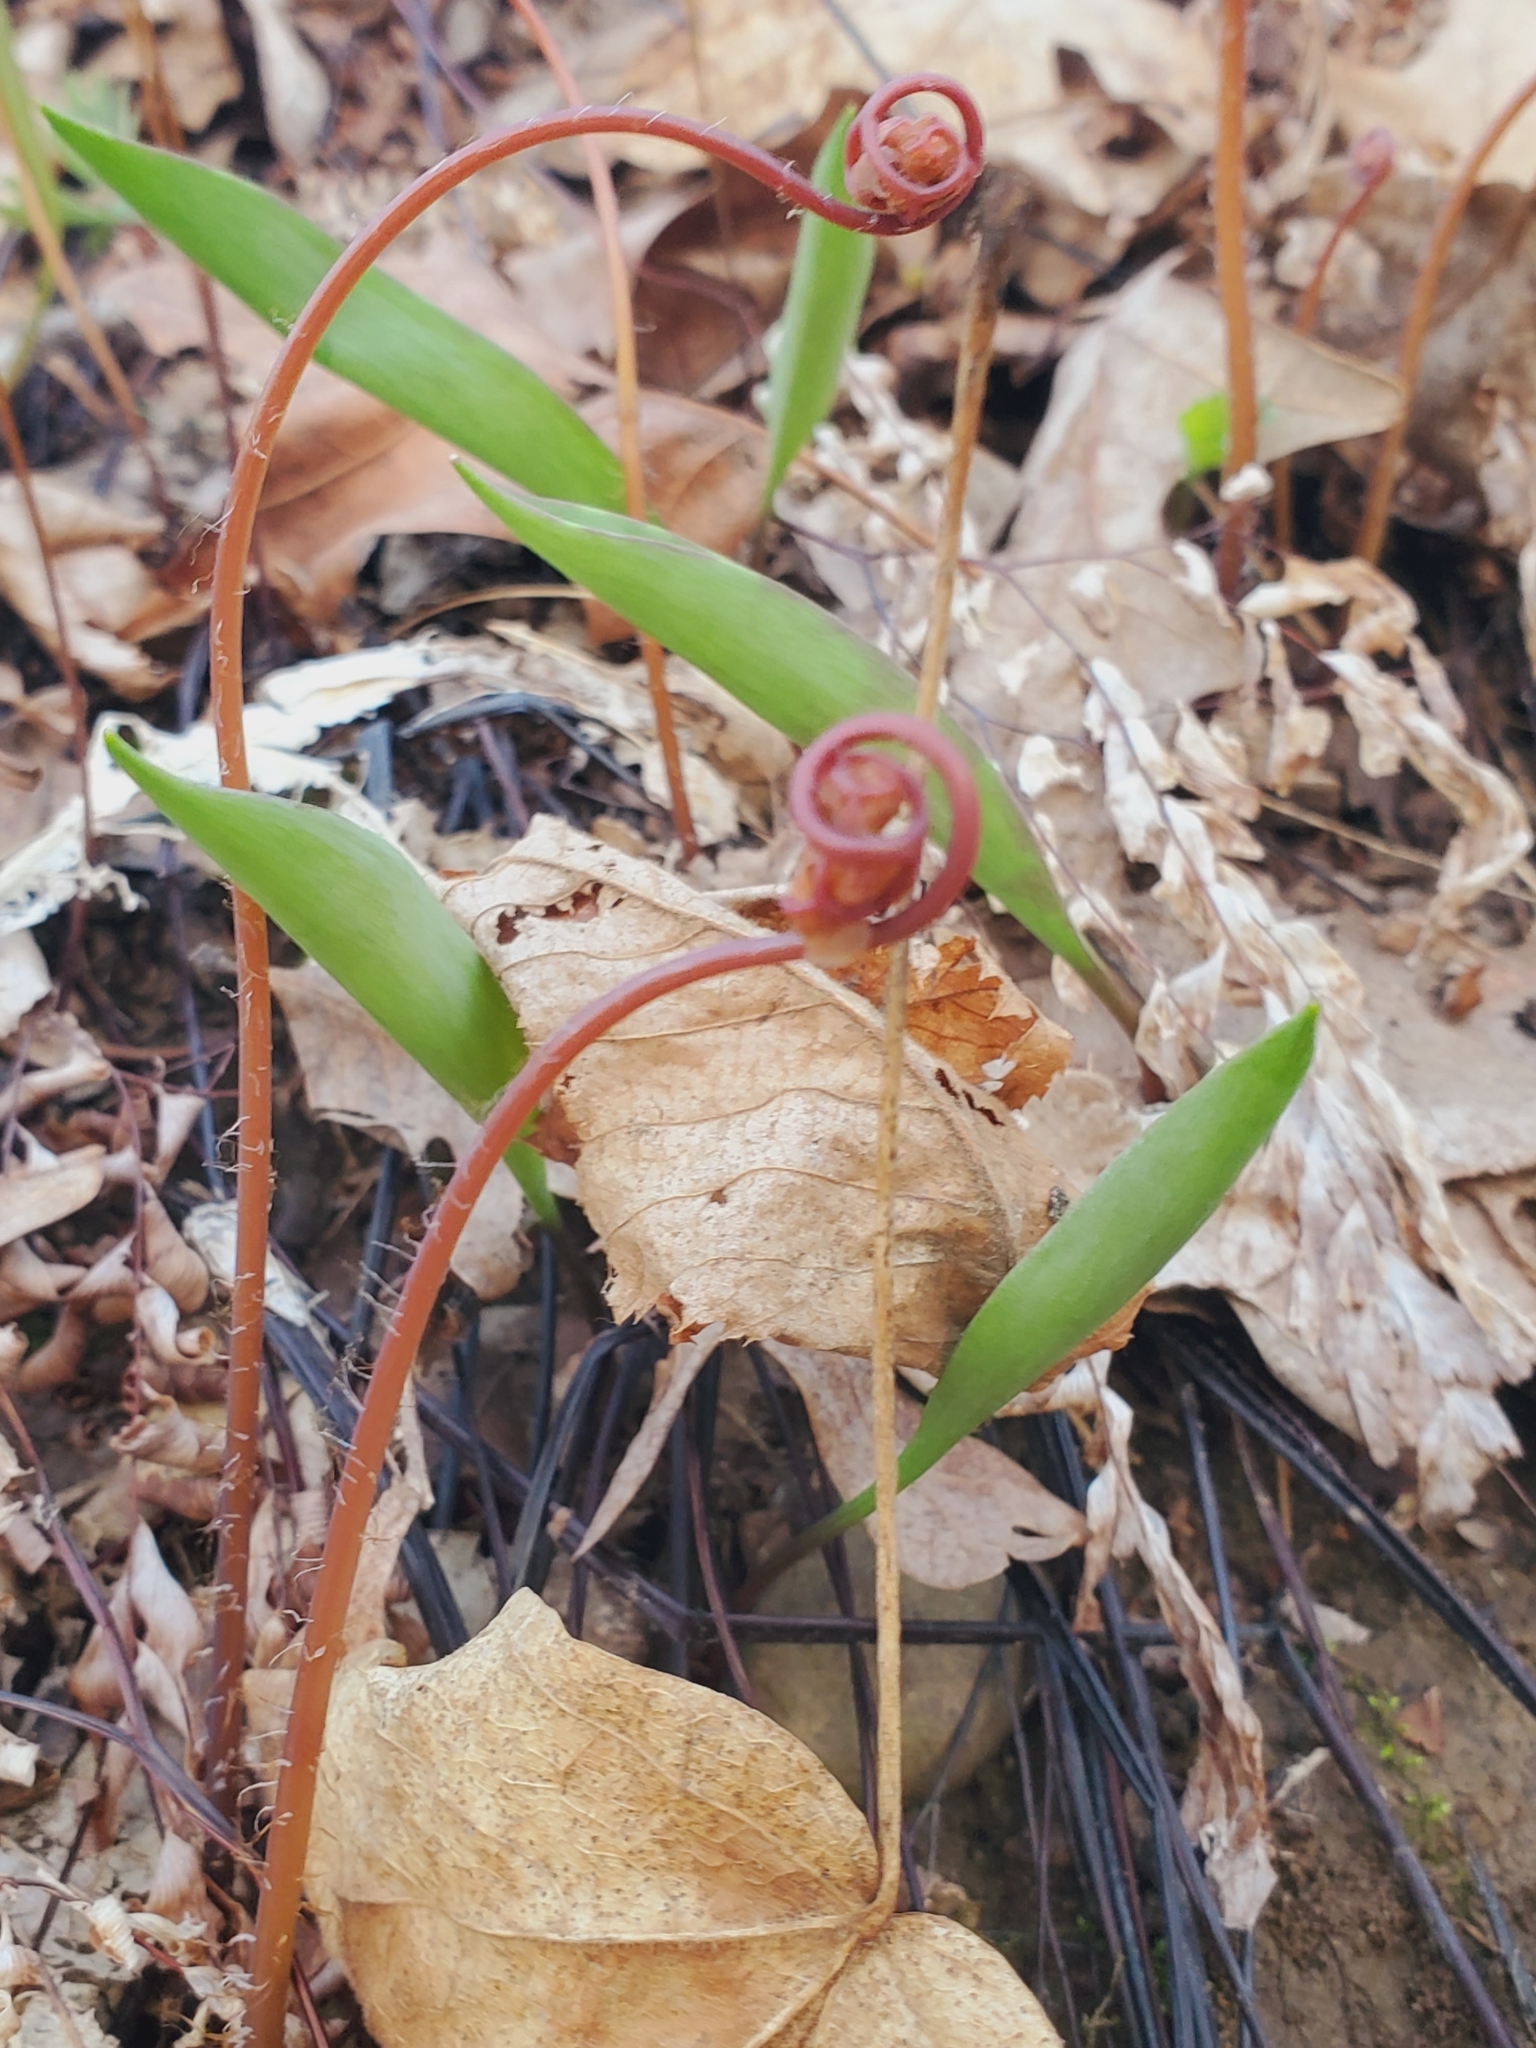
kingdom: Plantae
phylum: Tracheophyta
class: Polypodiopsida
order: Polypodiales
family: Pteridaceae
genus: Adiantum
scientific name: Adiantum pedatum
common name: Five-finger fern
